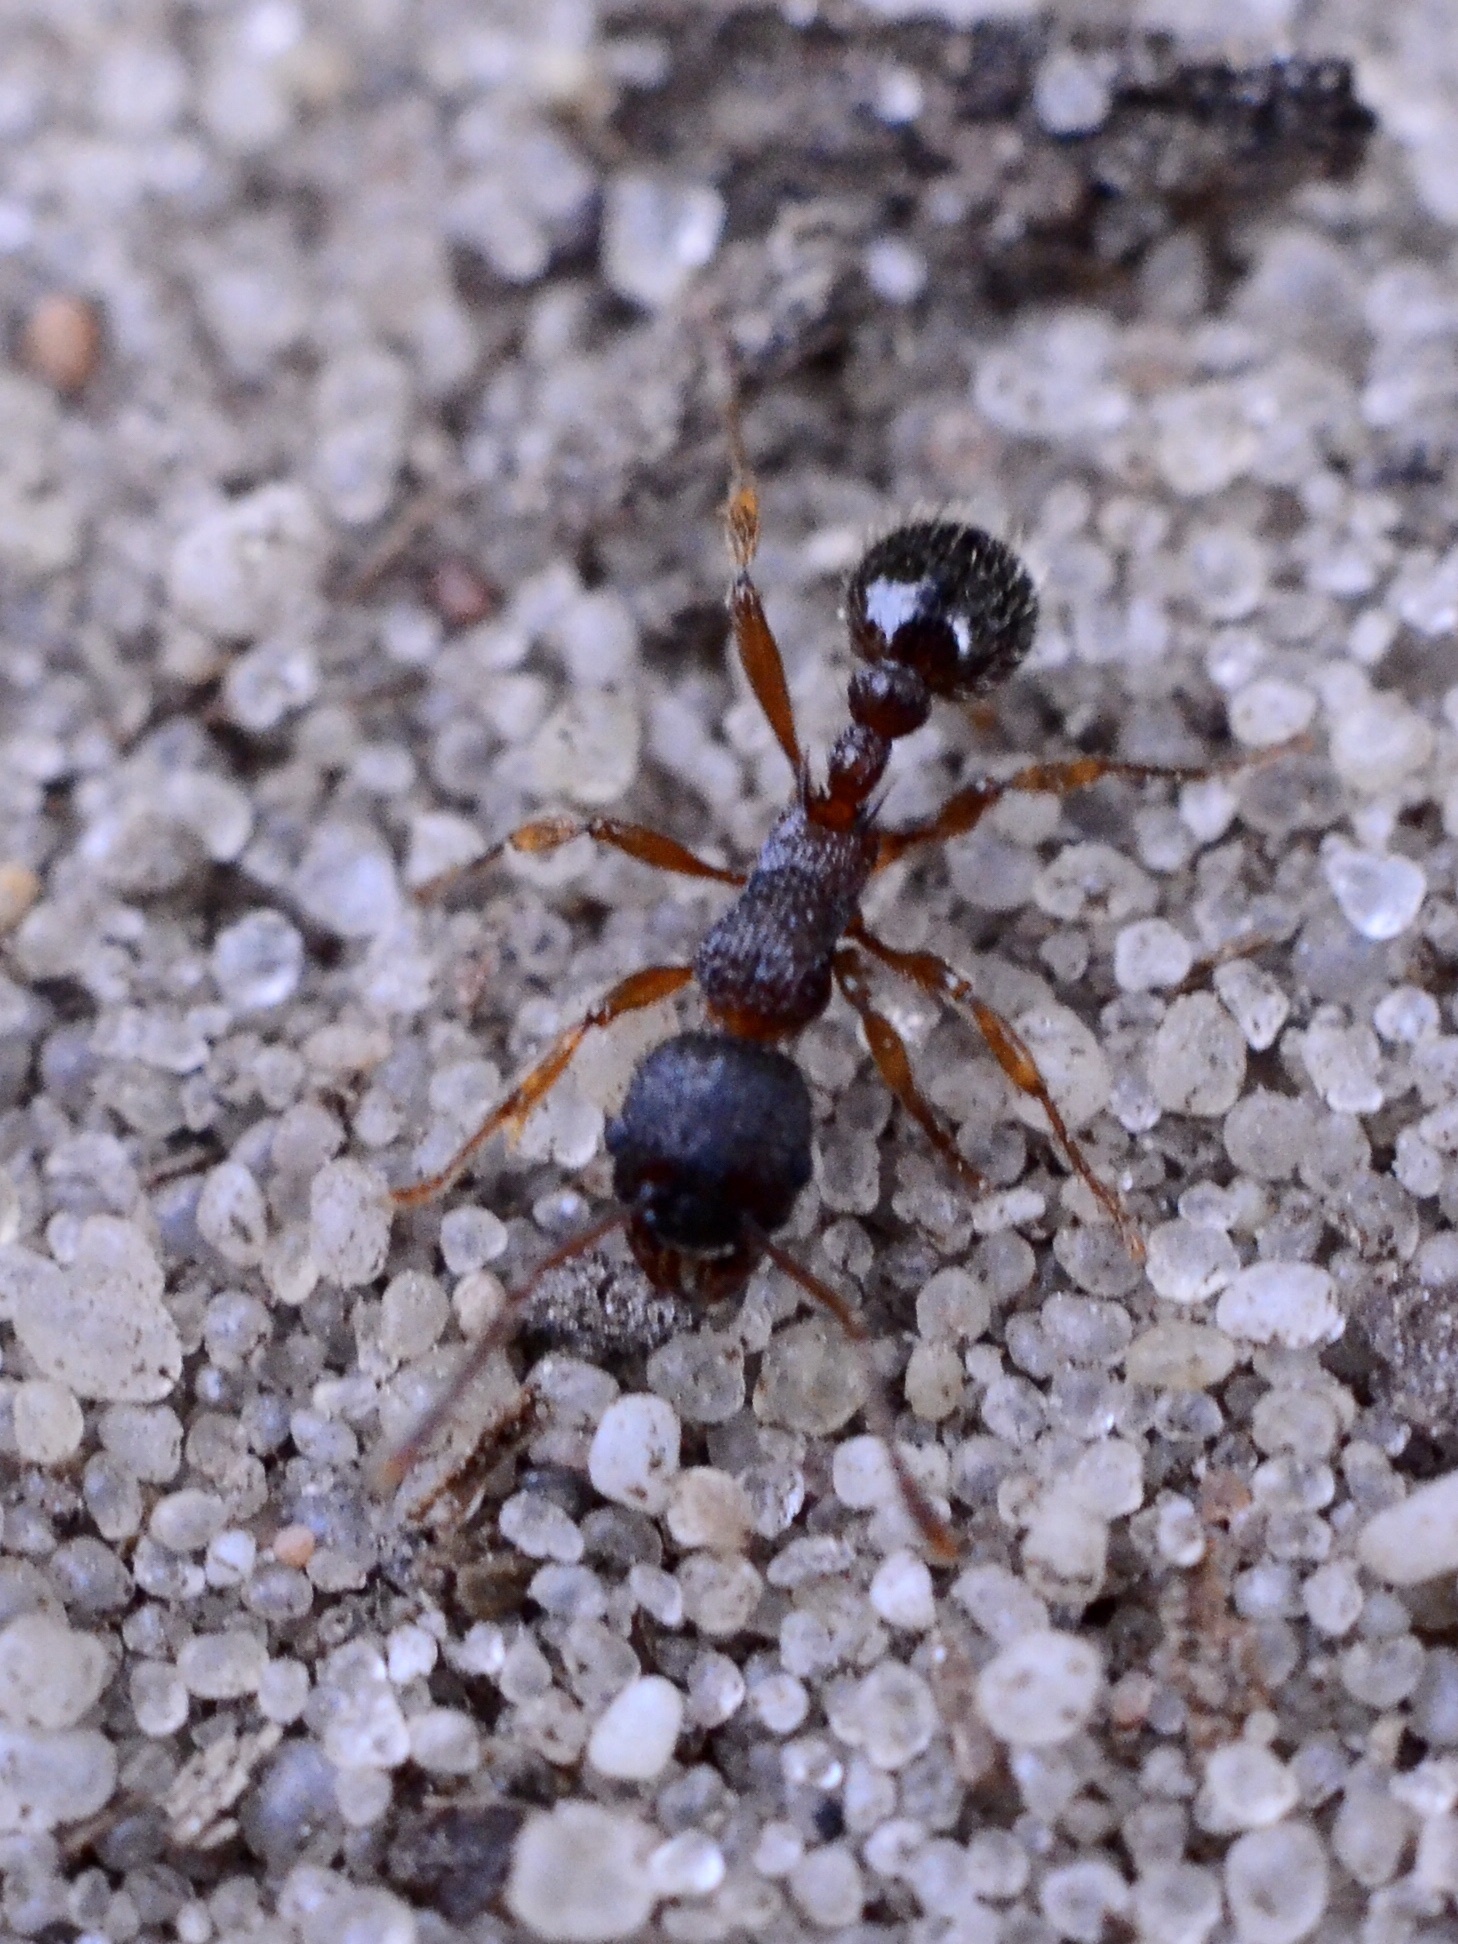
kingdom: Animalia
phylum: Arthropoda
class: Insecta
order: Hymenoptera
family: Formicidae
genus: Myrmica
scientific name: Myrmica
